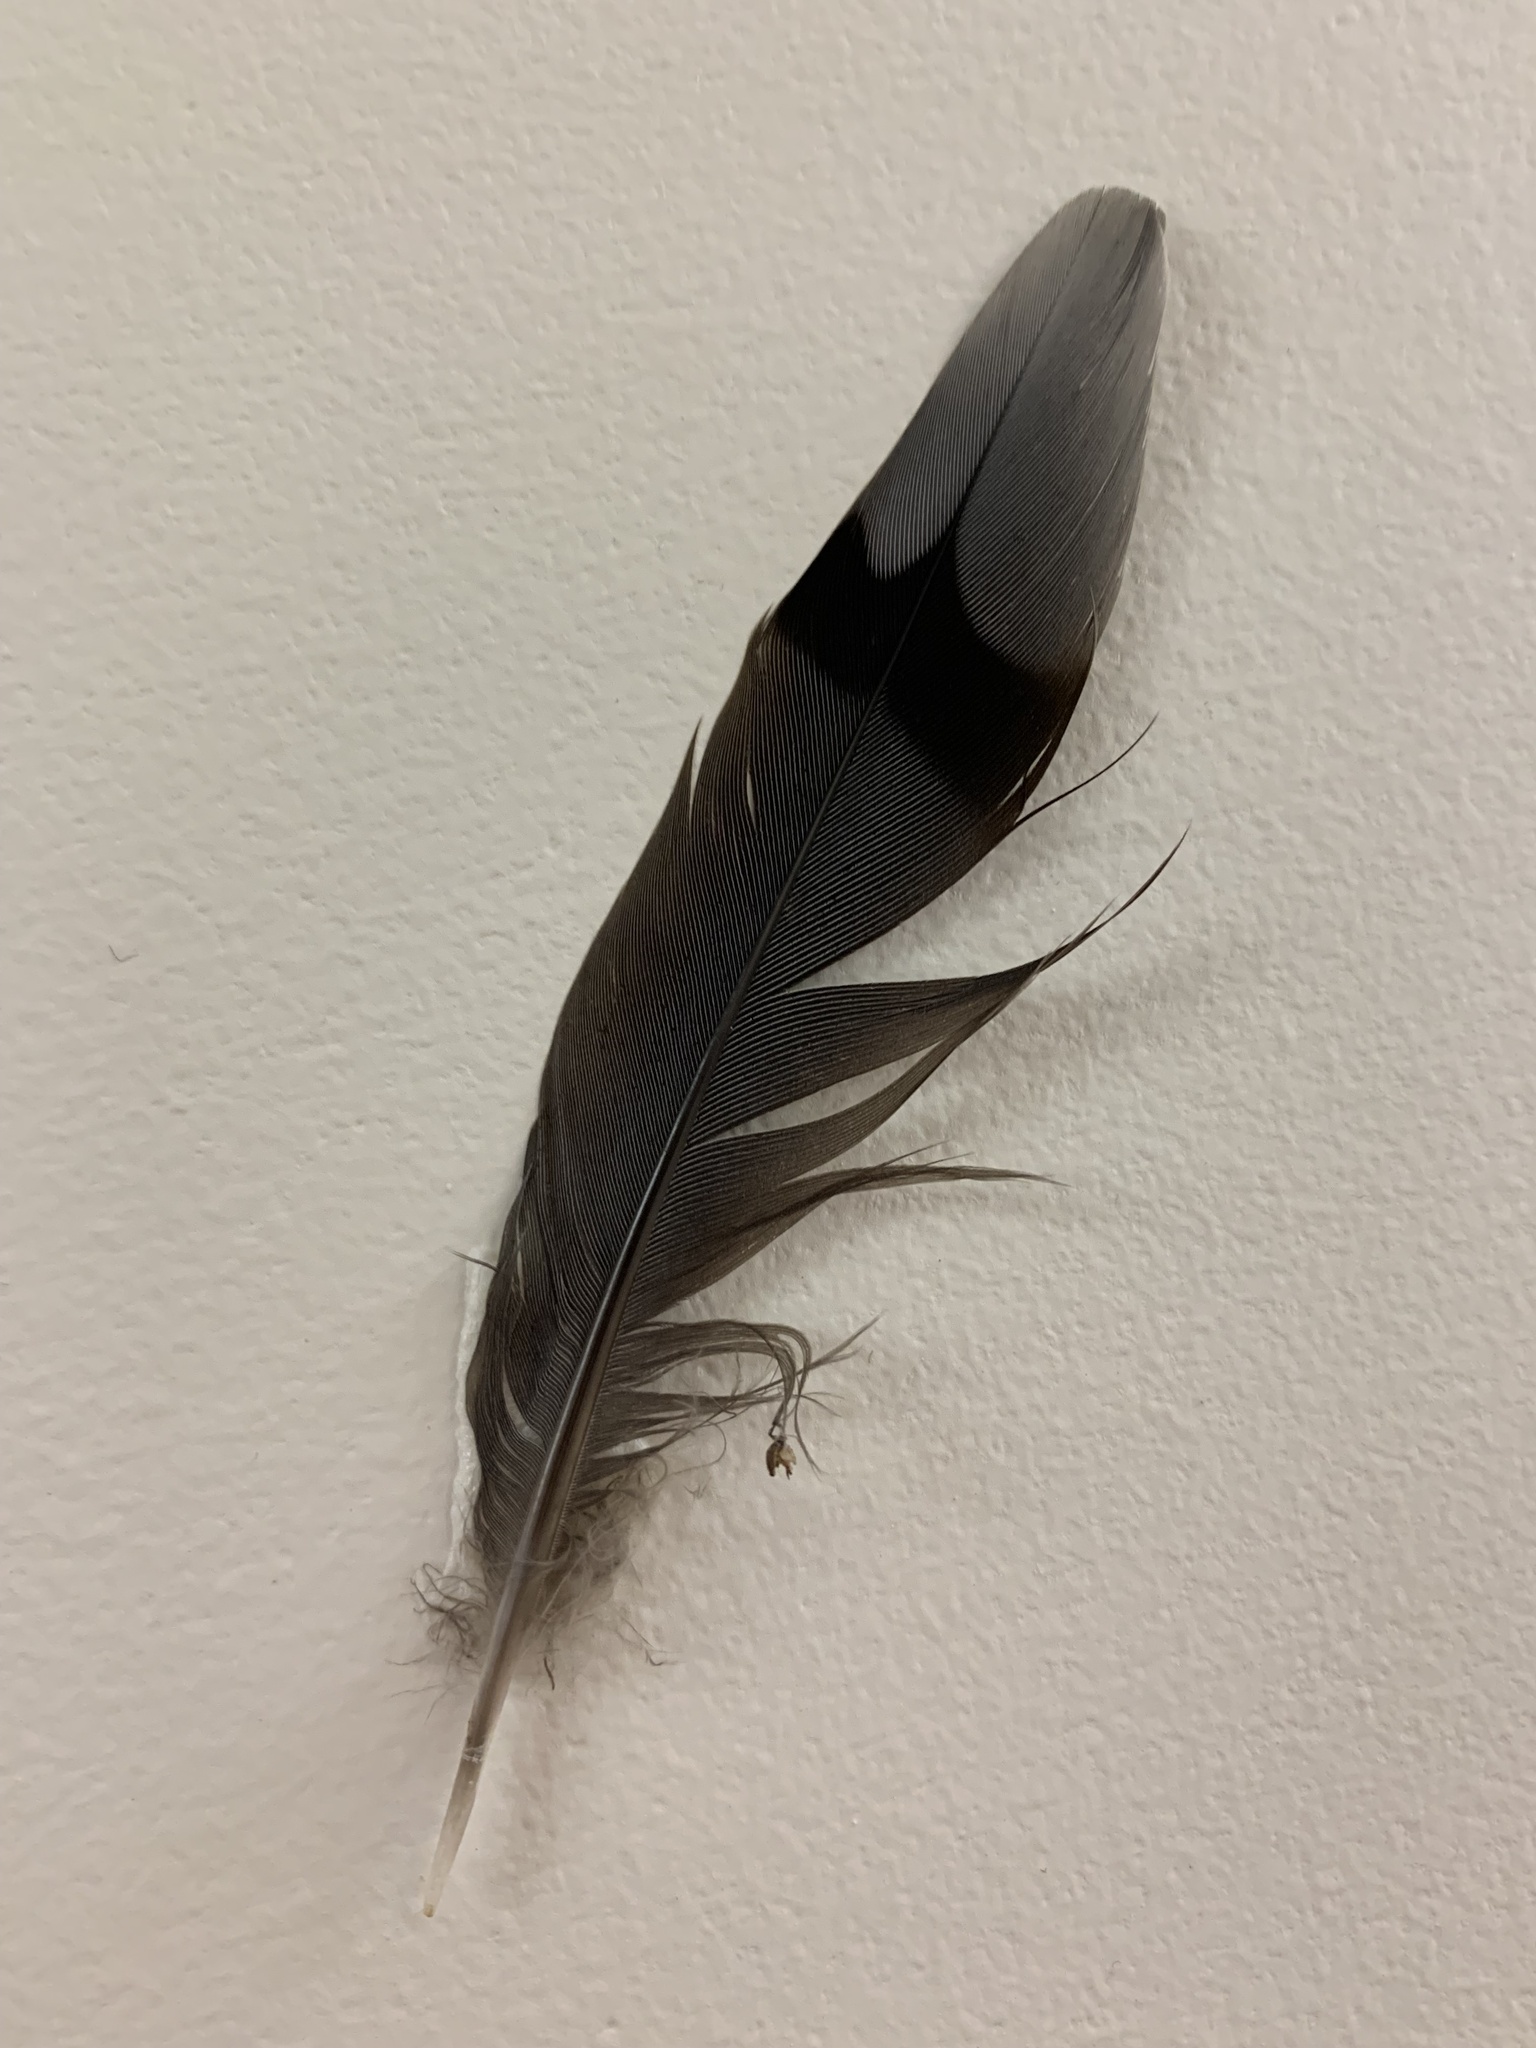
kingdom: Animalia
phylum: Chordata
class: Aves
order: Columbiformes
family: Columbidae
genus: Zenaida
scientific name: Zenaida macroura
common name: Mourning dove
